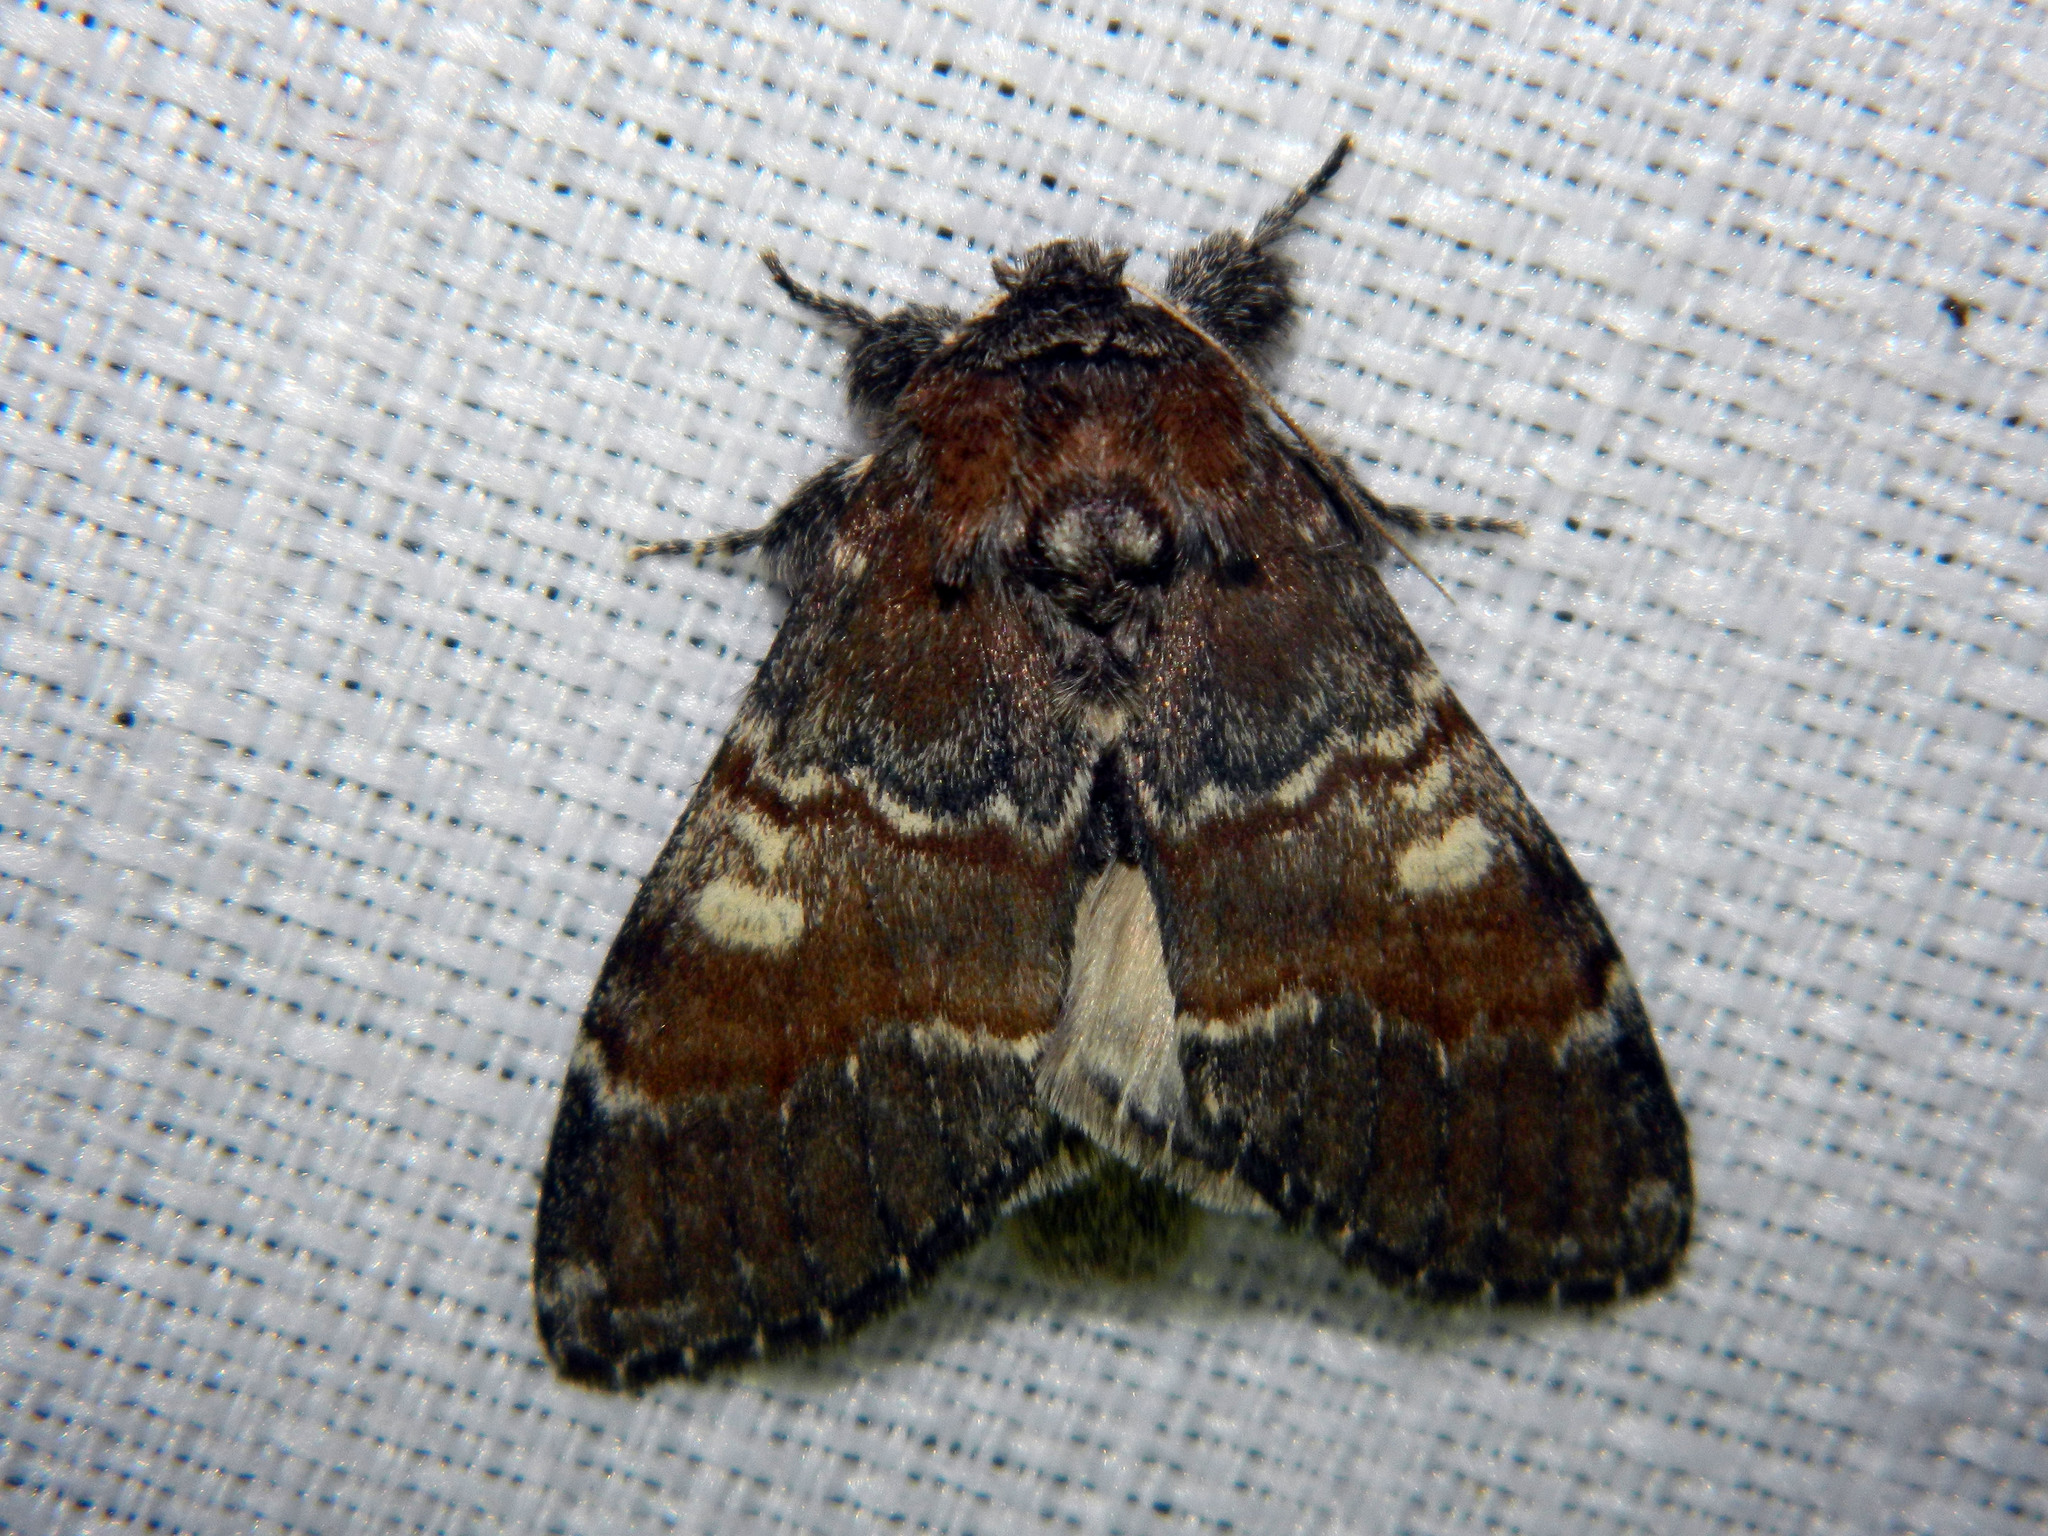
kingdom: Animalia
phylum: Arthropoda
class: Insecta
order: Lepidoptera
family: Notodontidae
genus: Peridea
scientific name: Peridea ferruginea
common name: Chocolate prominent
